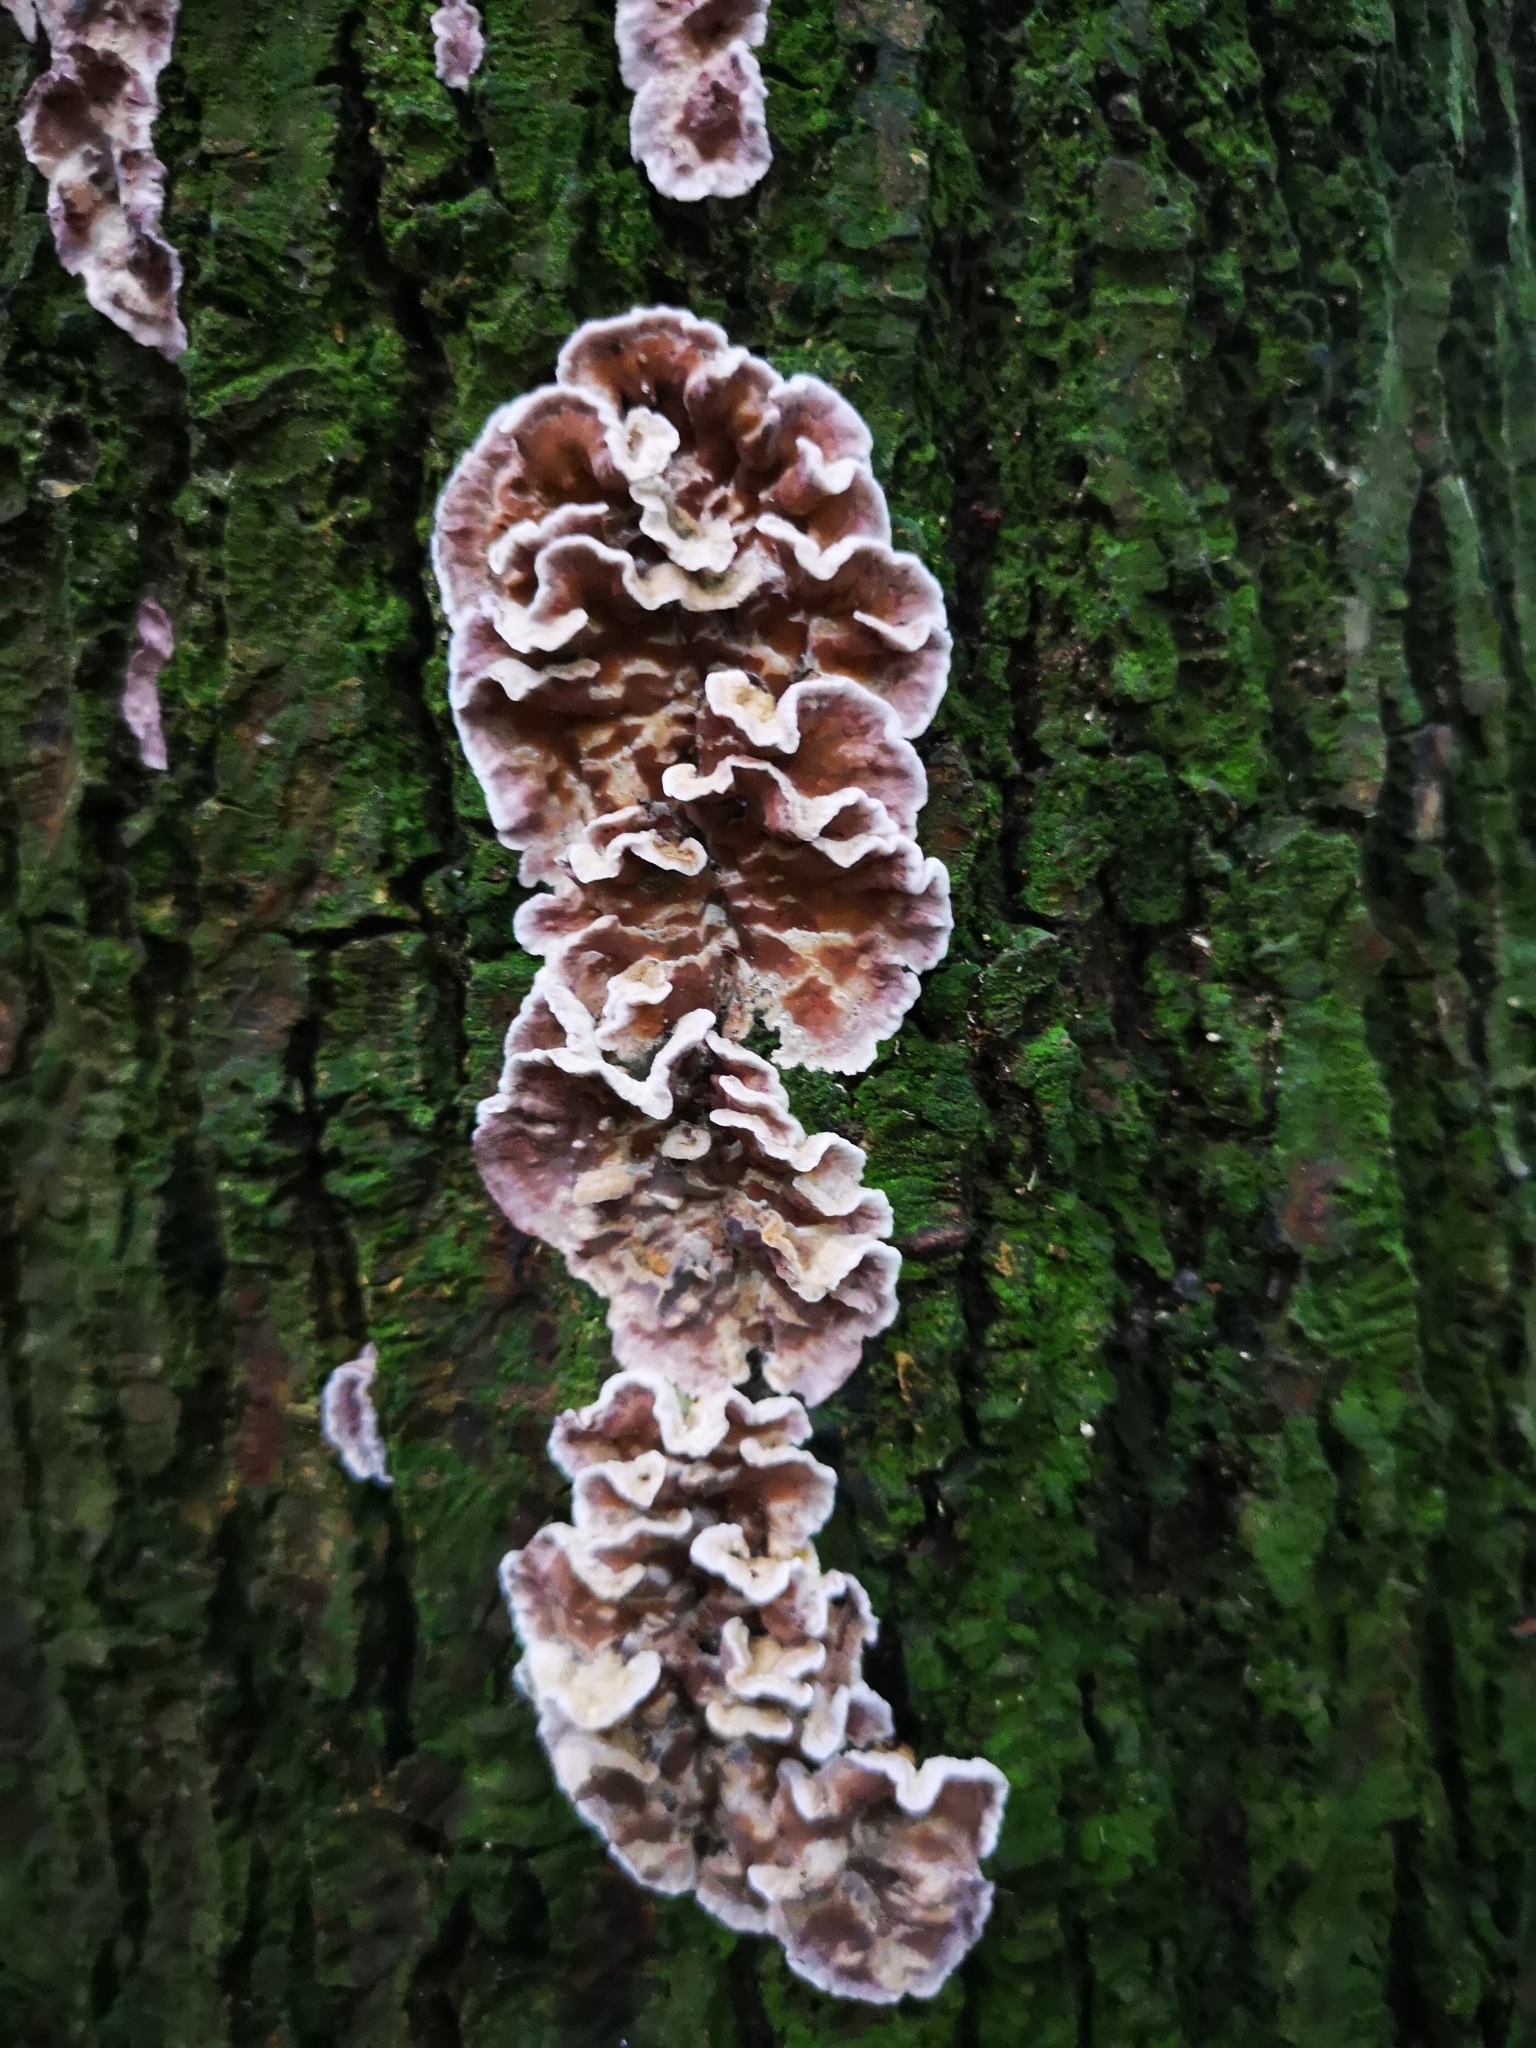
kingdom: Fungi
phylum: Basidiomycota
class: Agaricomycetes
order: Agaricales
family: Cyphellaceae
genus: Chondrostereum
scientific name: Chondrostereum purpureum
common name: Silver leaf disease
